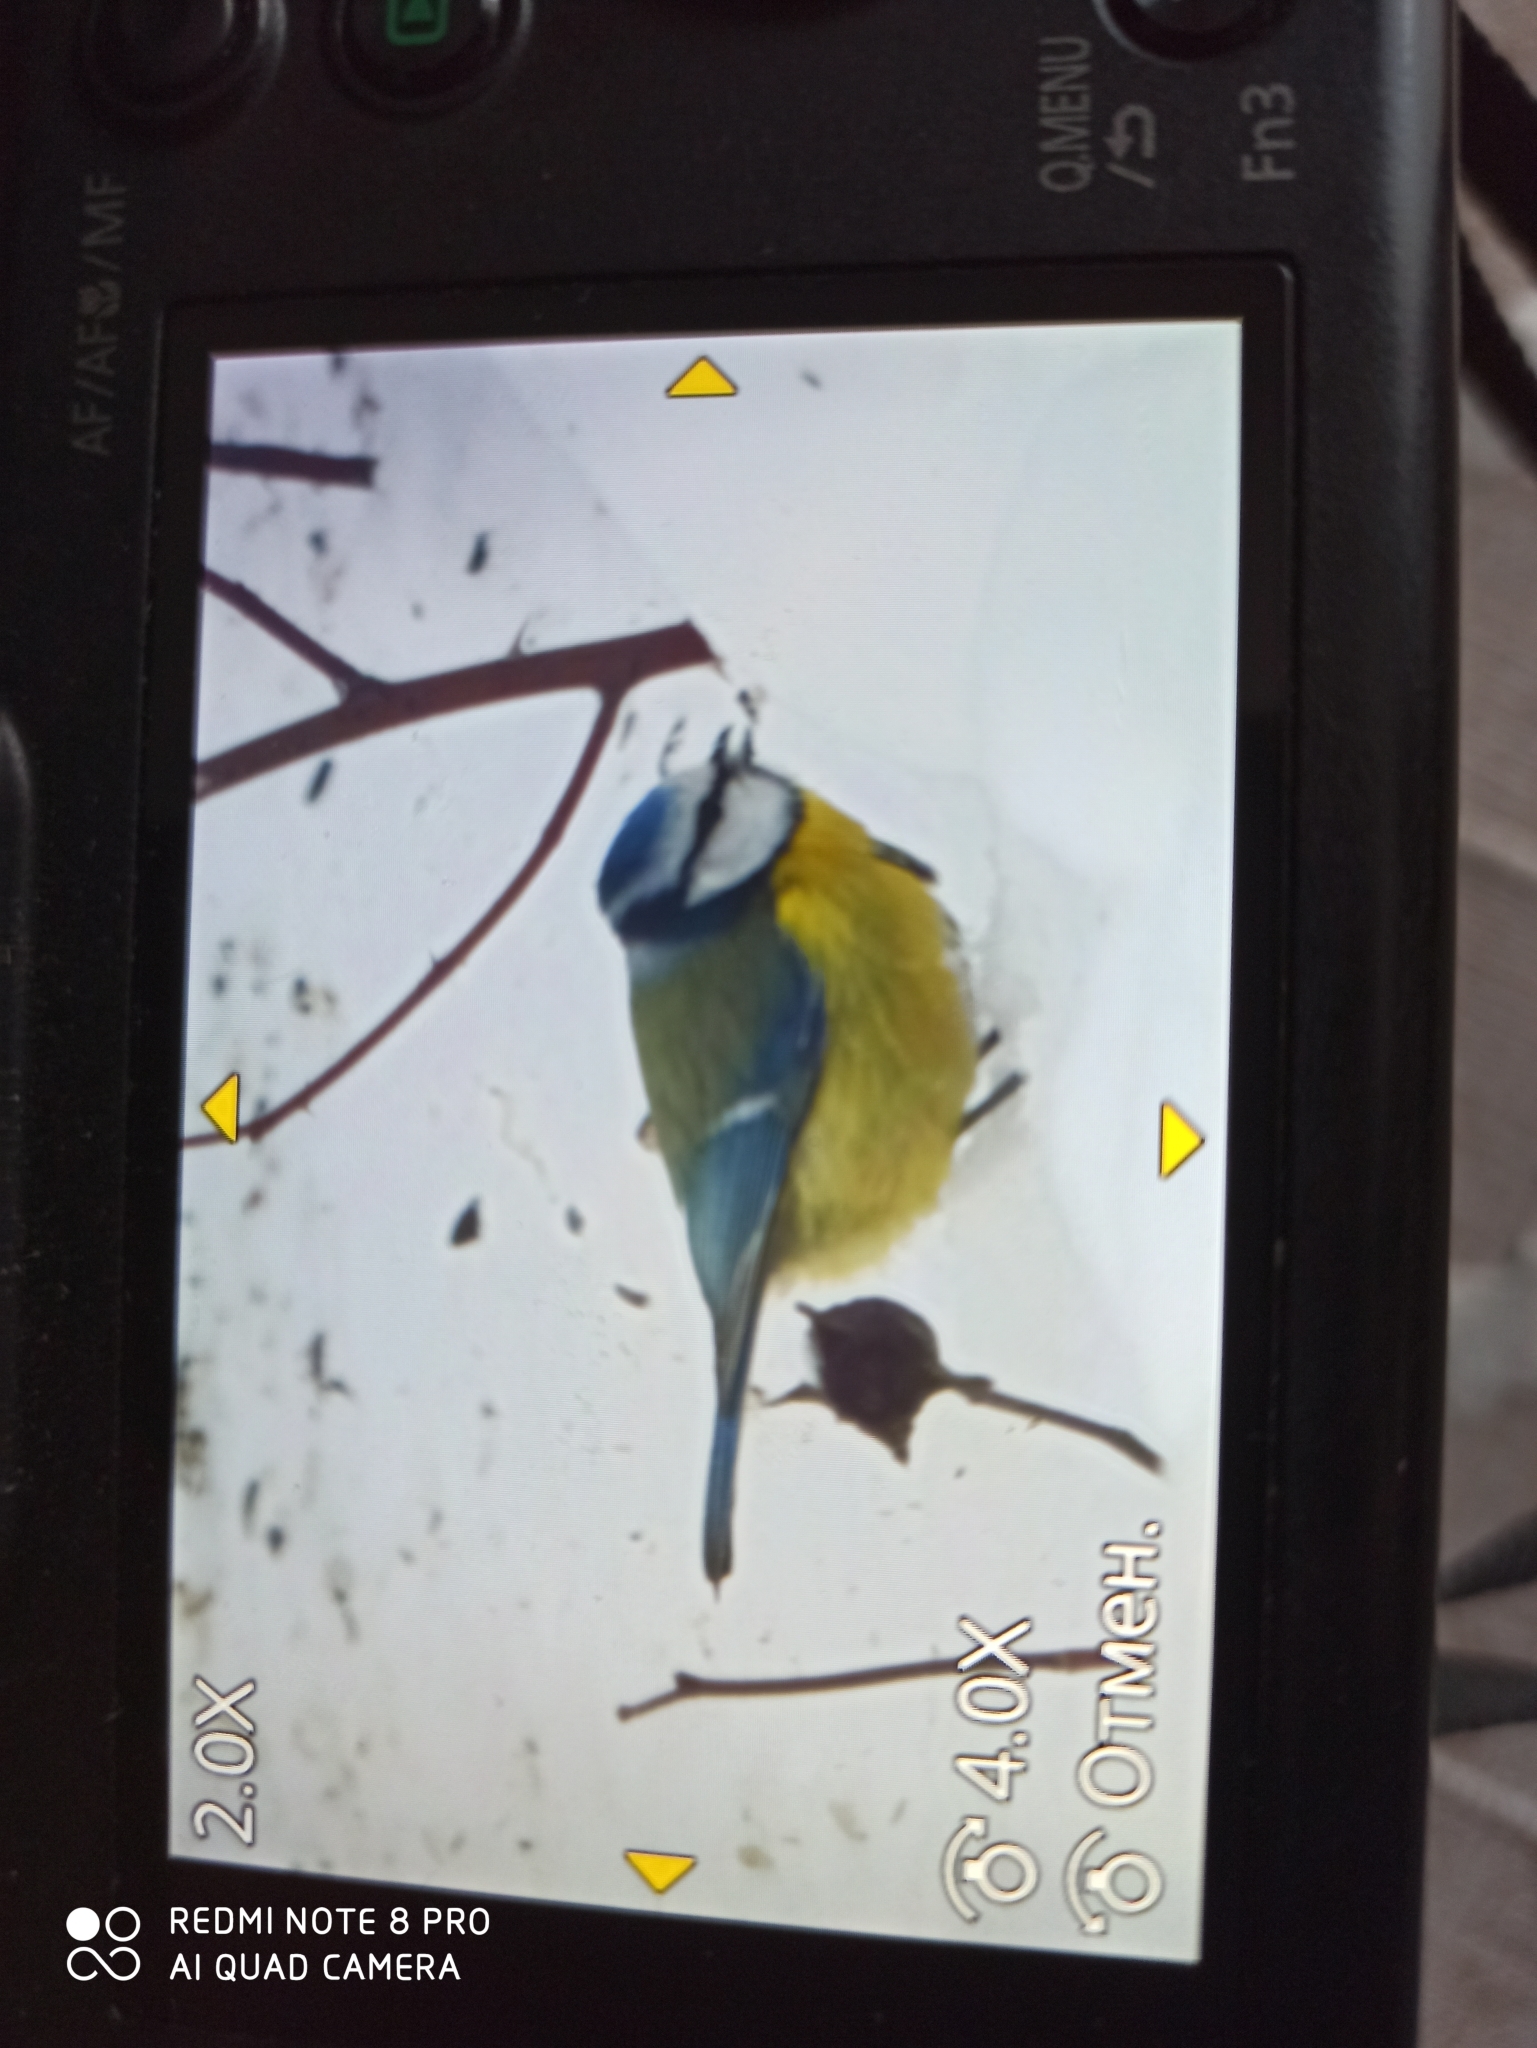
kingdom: Animalia
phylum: Chordata
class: Aves
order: Passeriformes
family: Paridae
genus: Cyanistes
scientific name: Cyanistes caeruleus
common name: Eurasian blue tit
